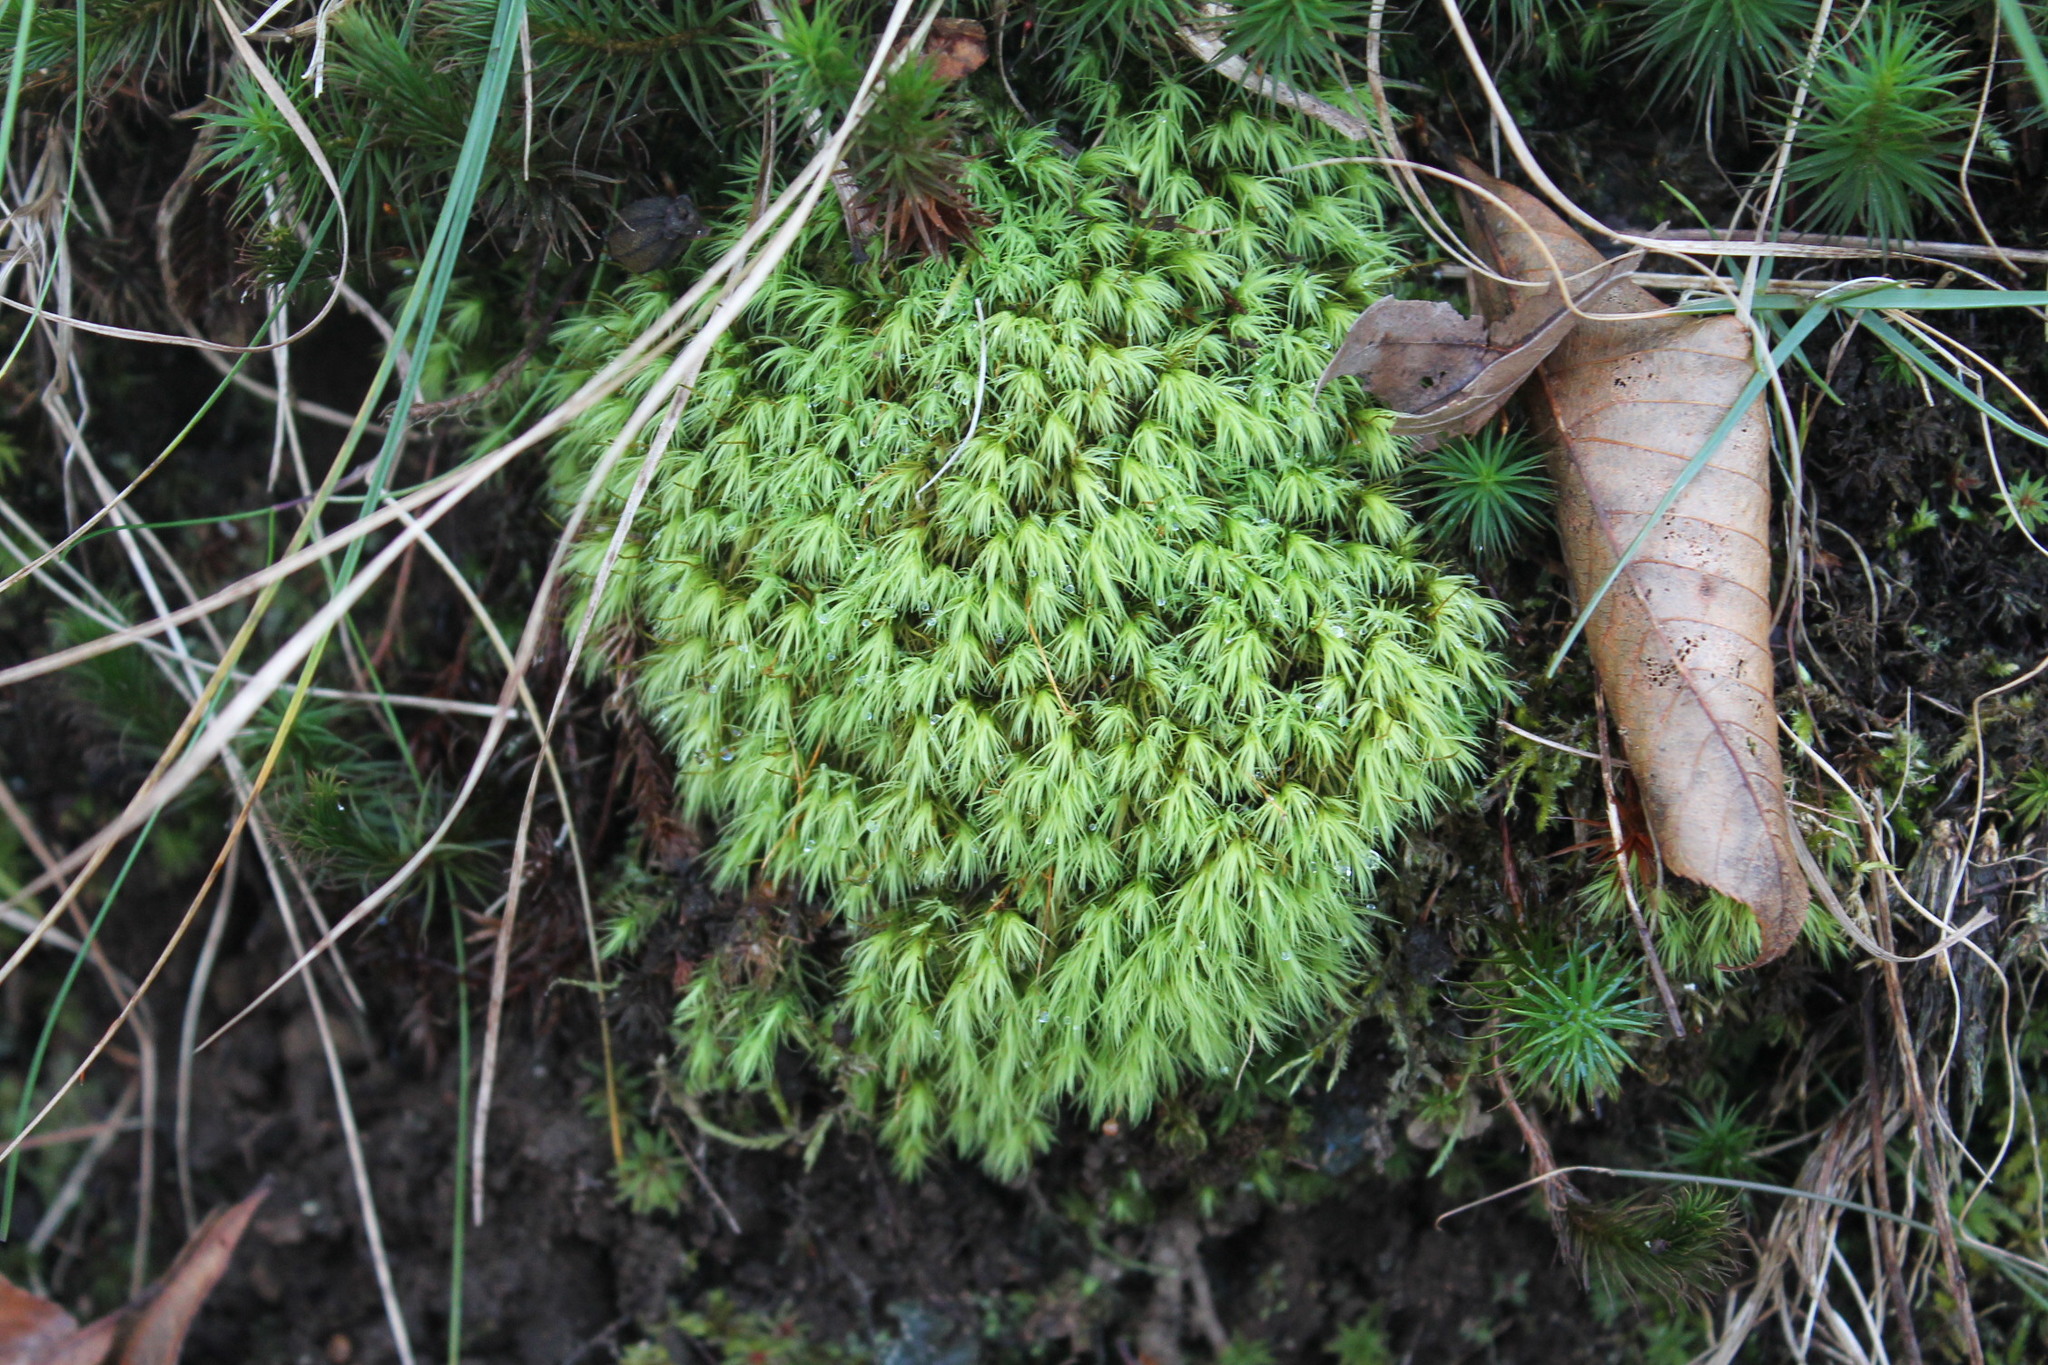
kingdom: Plantae
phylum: Bryophyta
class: Bryopsida
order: Bartramiales
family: Bartramiaceae
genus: Bartramia
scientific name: Bartramia ithyphylla
